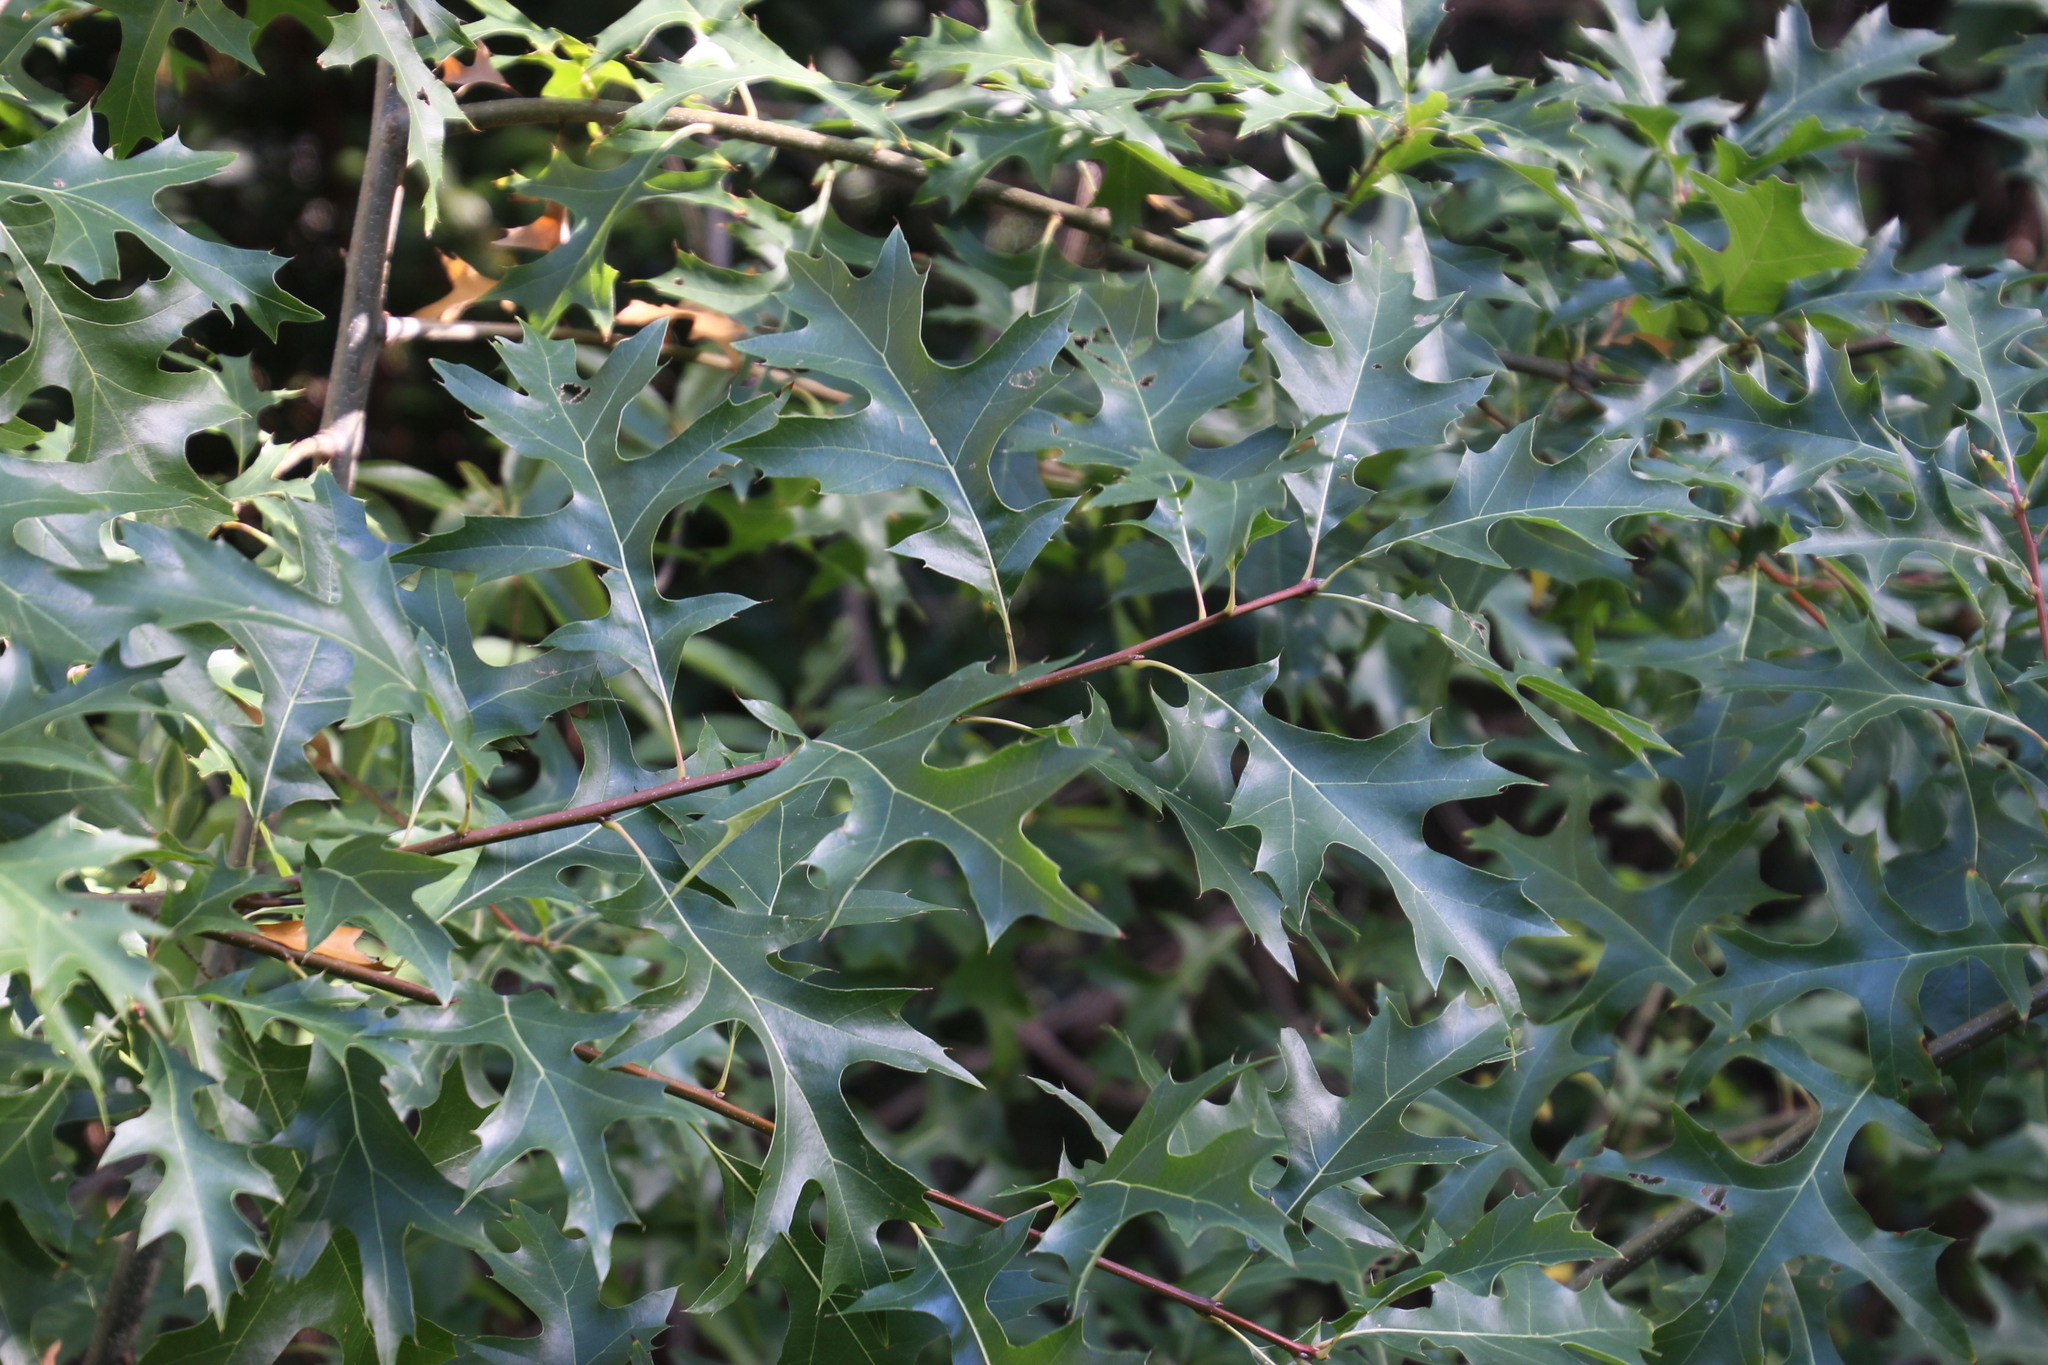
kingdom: Plantae
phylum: Tracheophyta
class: Magnoliopsida
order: Fagales
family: Fagaceae
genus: Quercus
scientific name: Quercus palustris
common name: Pin oak
